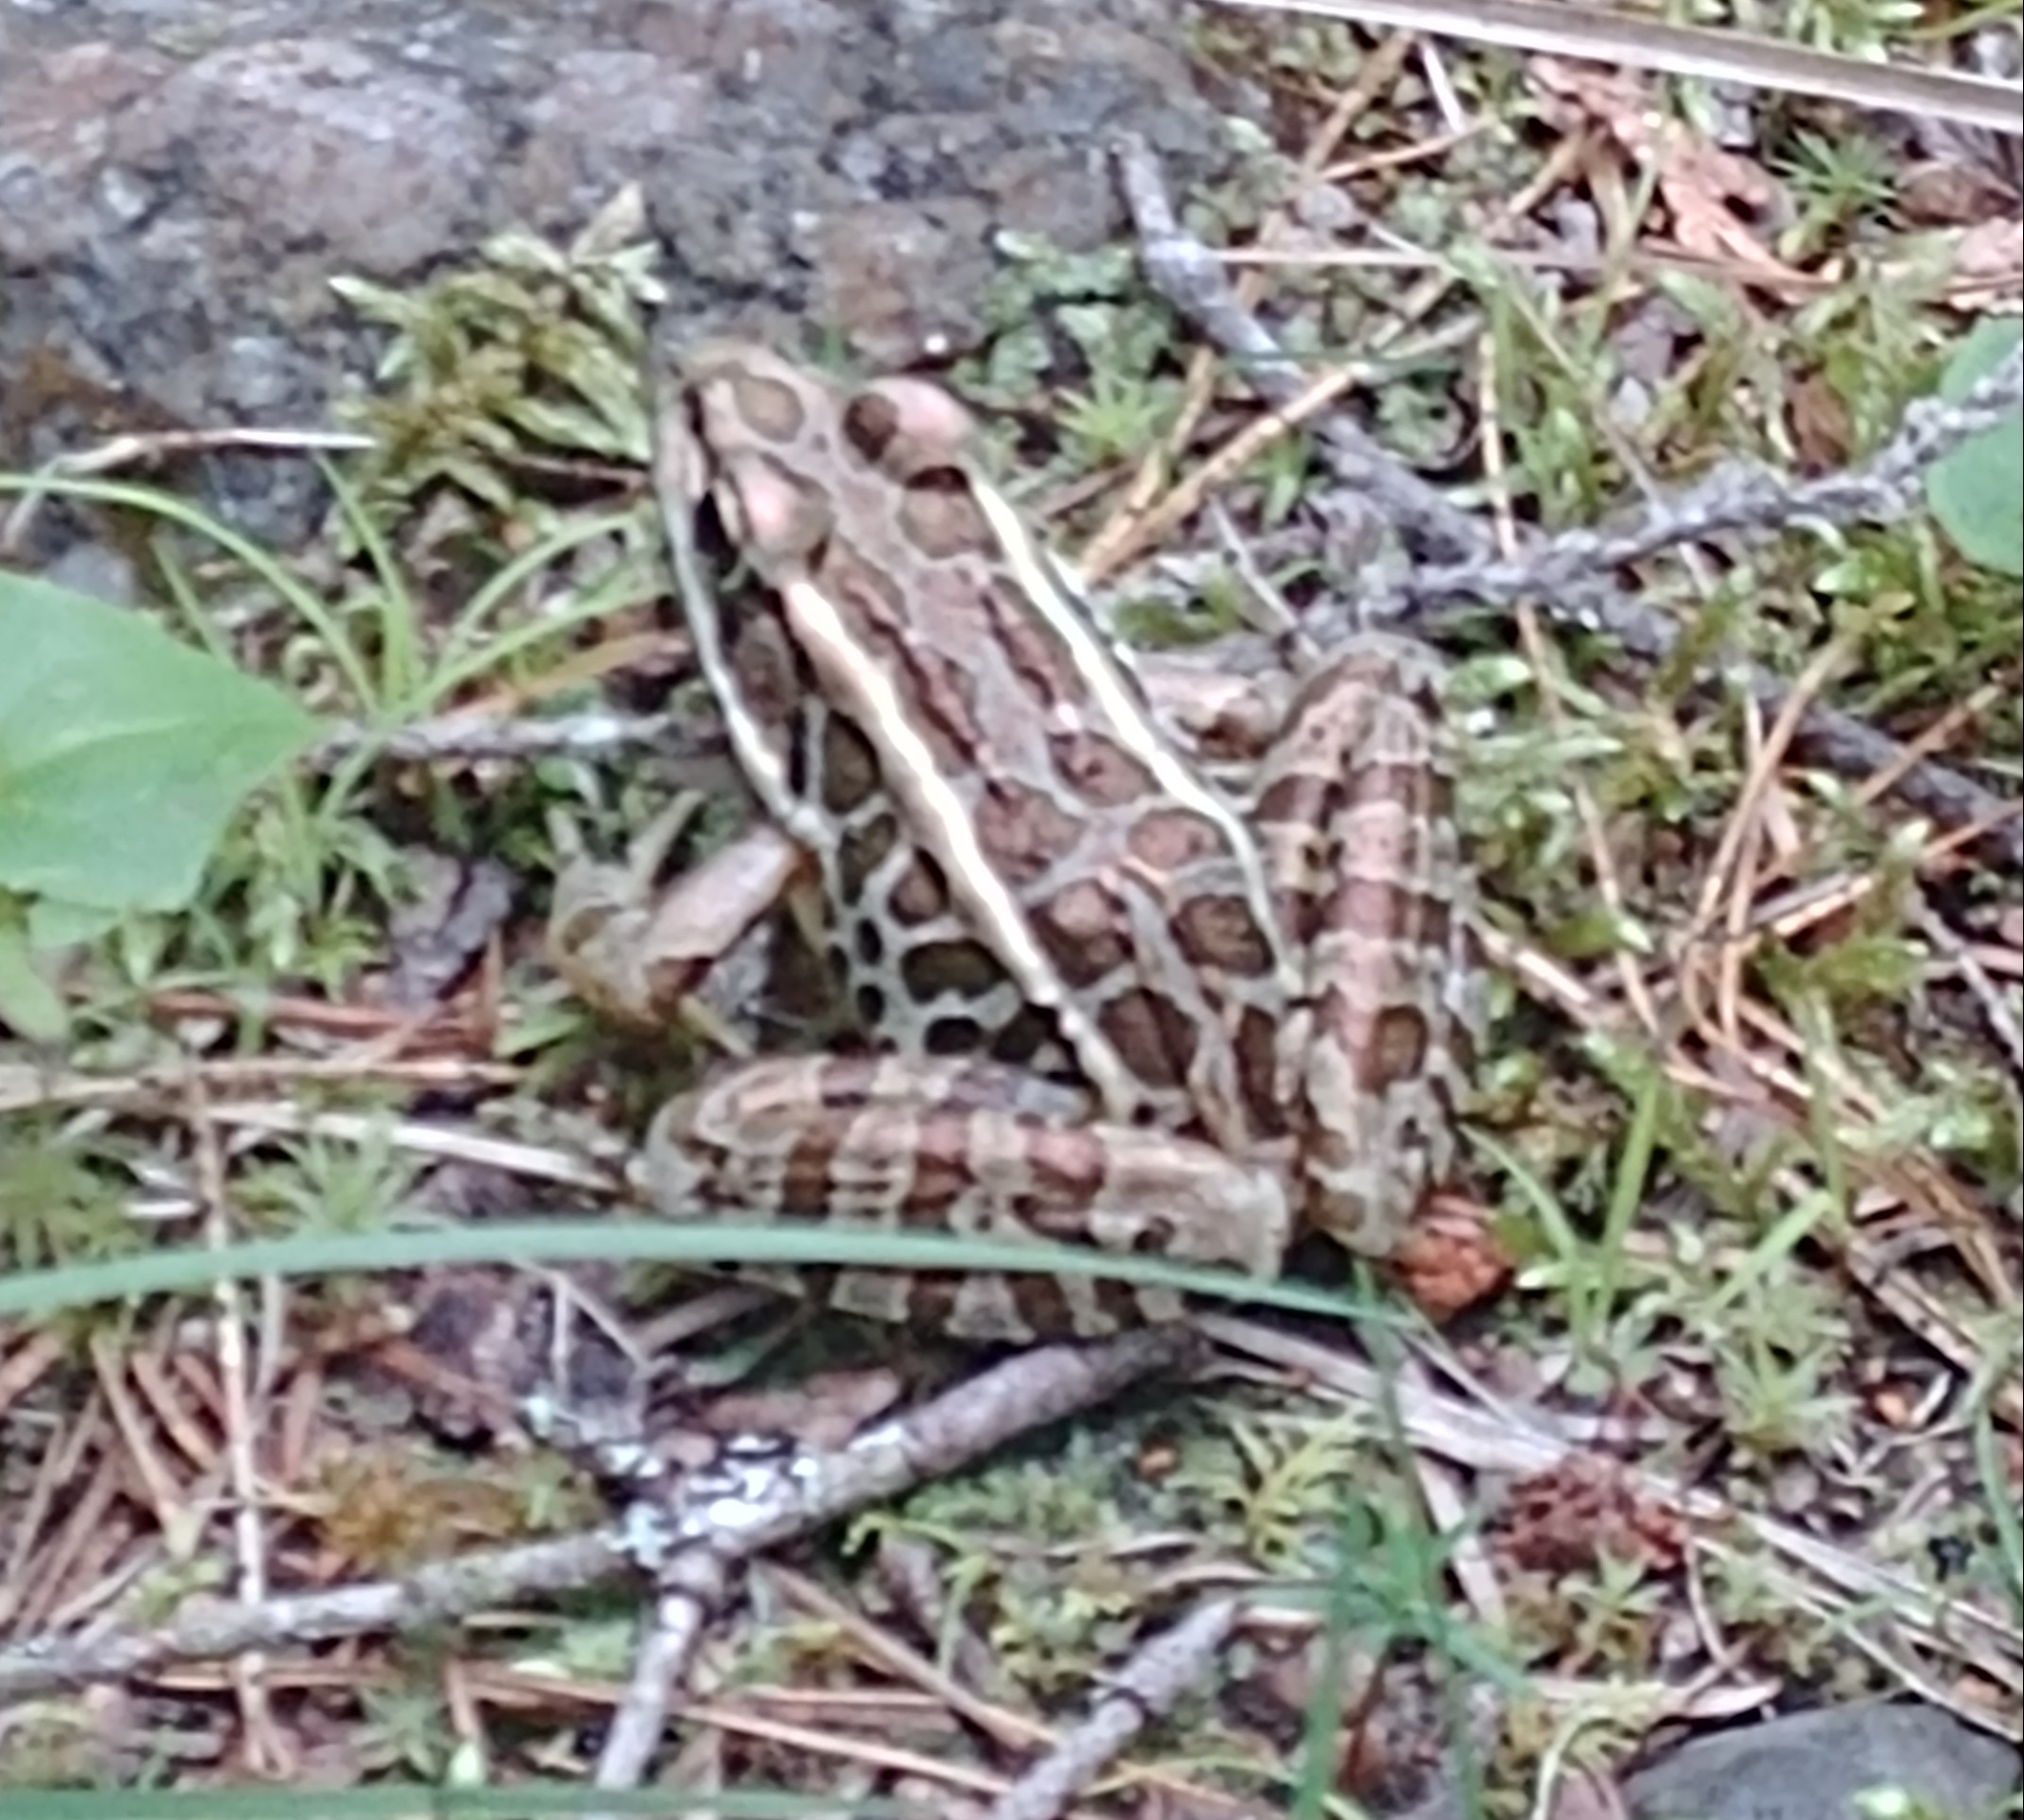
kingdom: Animalia
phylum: Chordata
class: Amphibia
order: Anura
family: Ranidae
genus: Lithobates
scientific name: Lithobates palustris
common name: Pickerel frog
